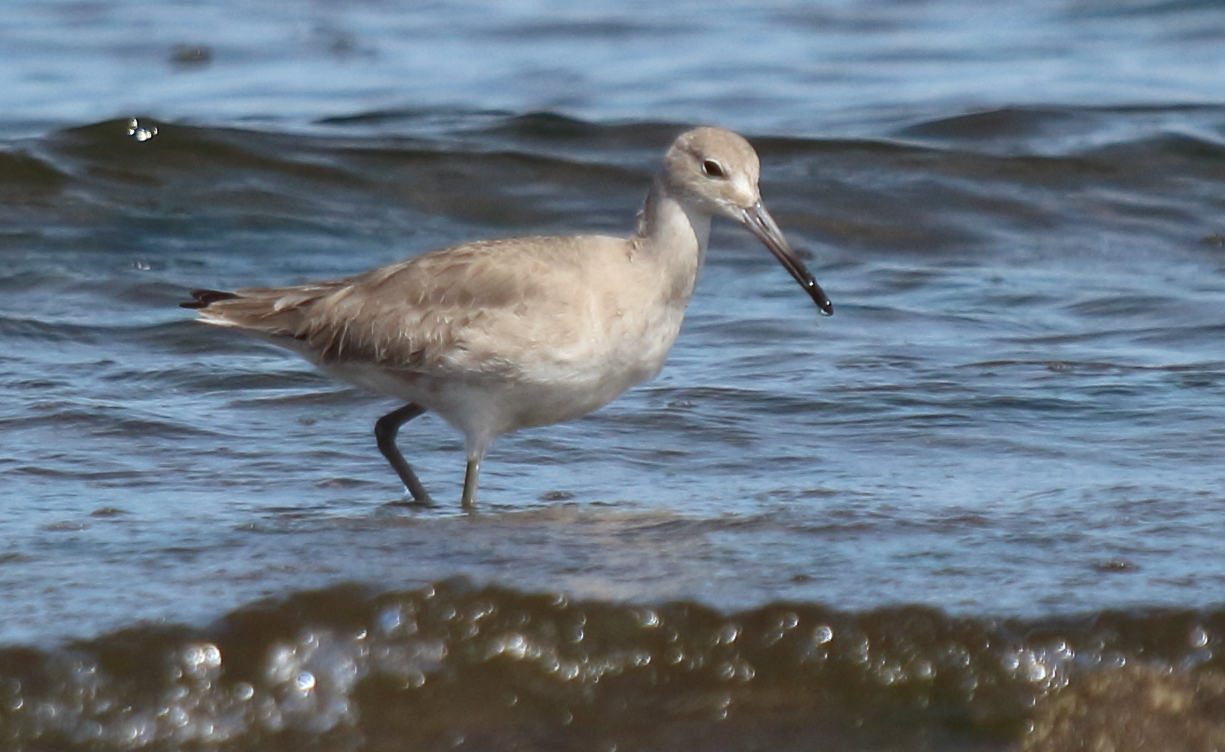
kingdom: Animalia
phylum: Chordata
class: Aves
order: Charadriiformes
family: Scolopacidae
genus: Tringa
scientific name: Tringa semipalmata
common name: Willet
